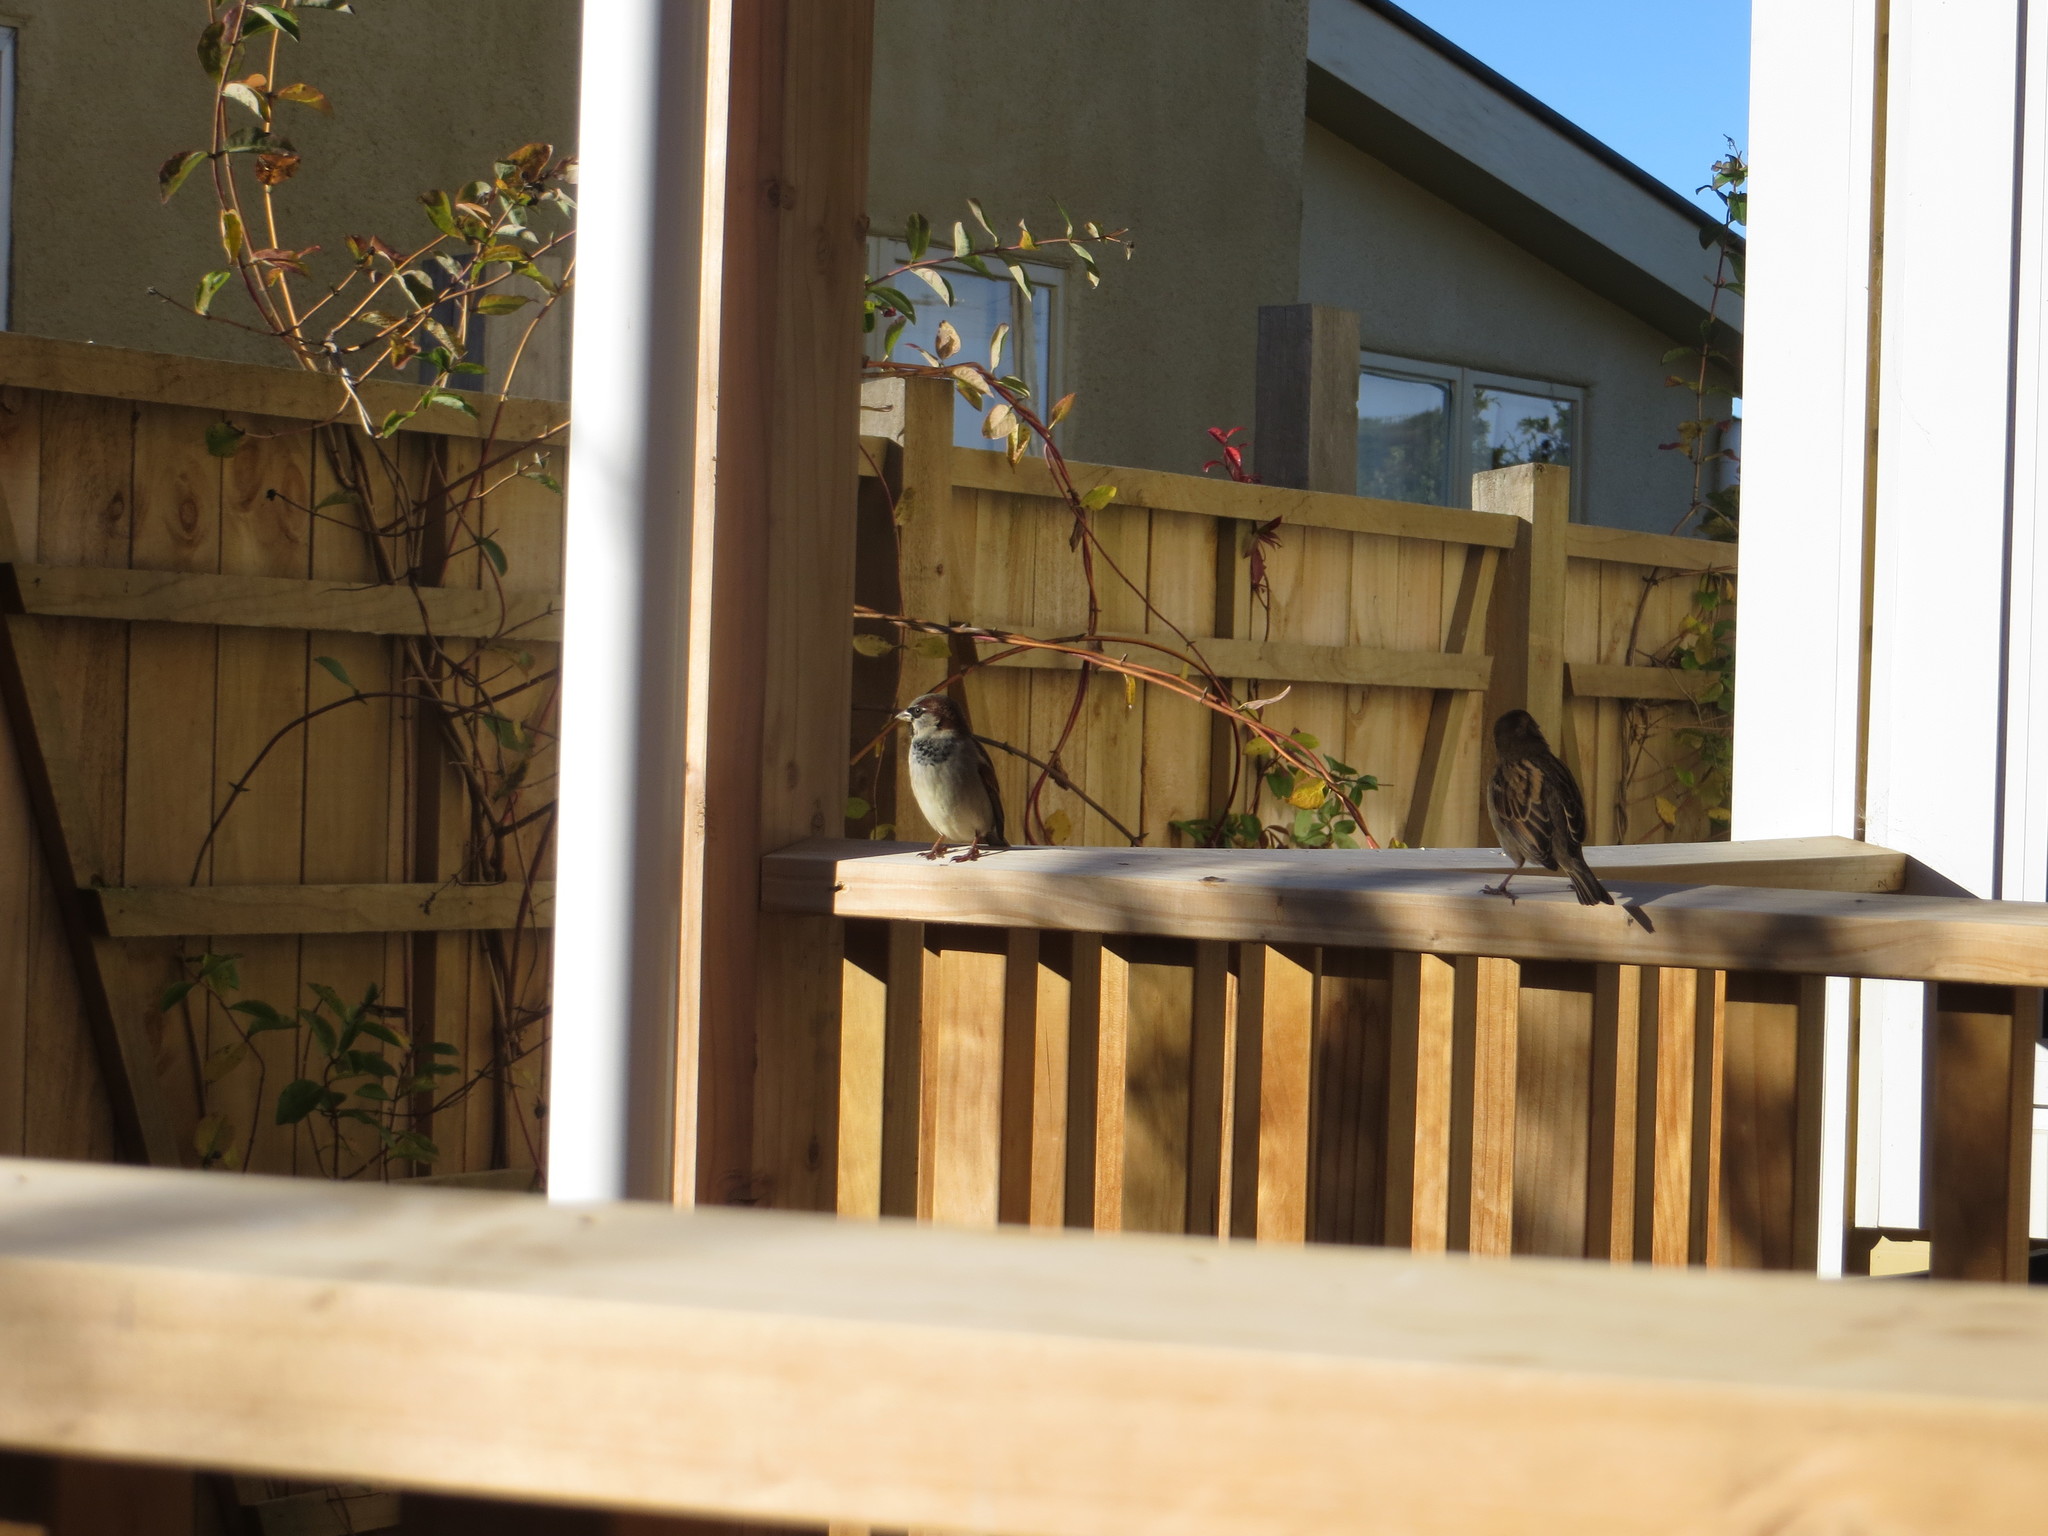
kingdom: Animalia
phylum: Chordata
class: Aves
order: Passeriformes
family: Passeridae
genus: Passer
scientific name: Passer domesticus
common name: House sparrow
